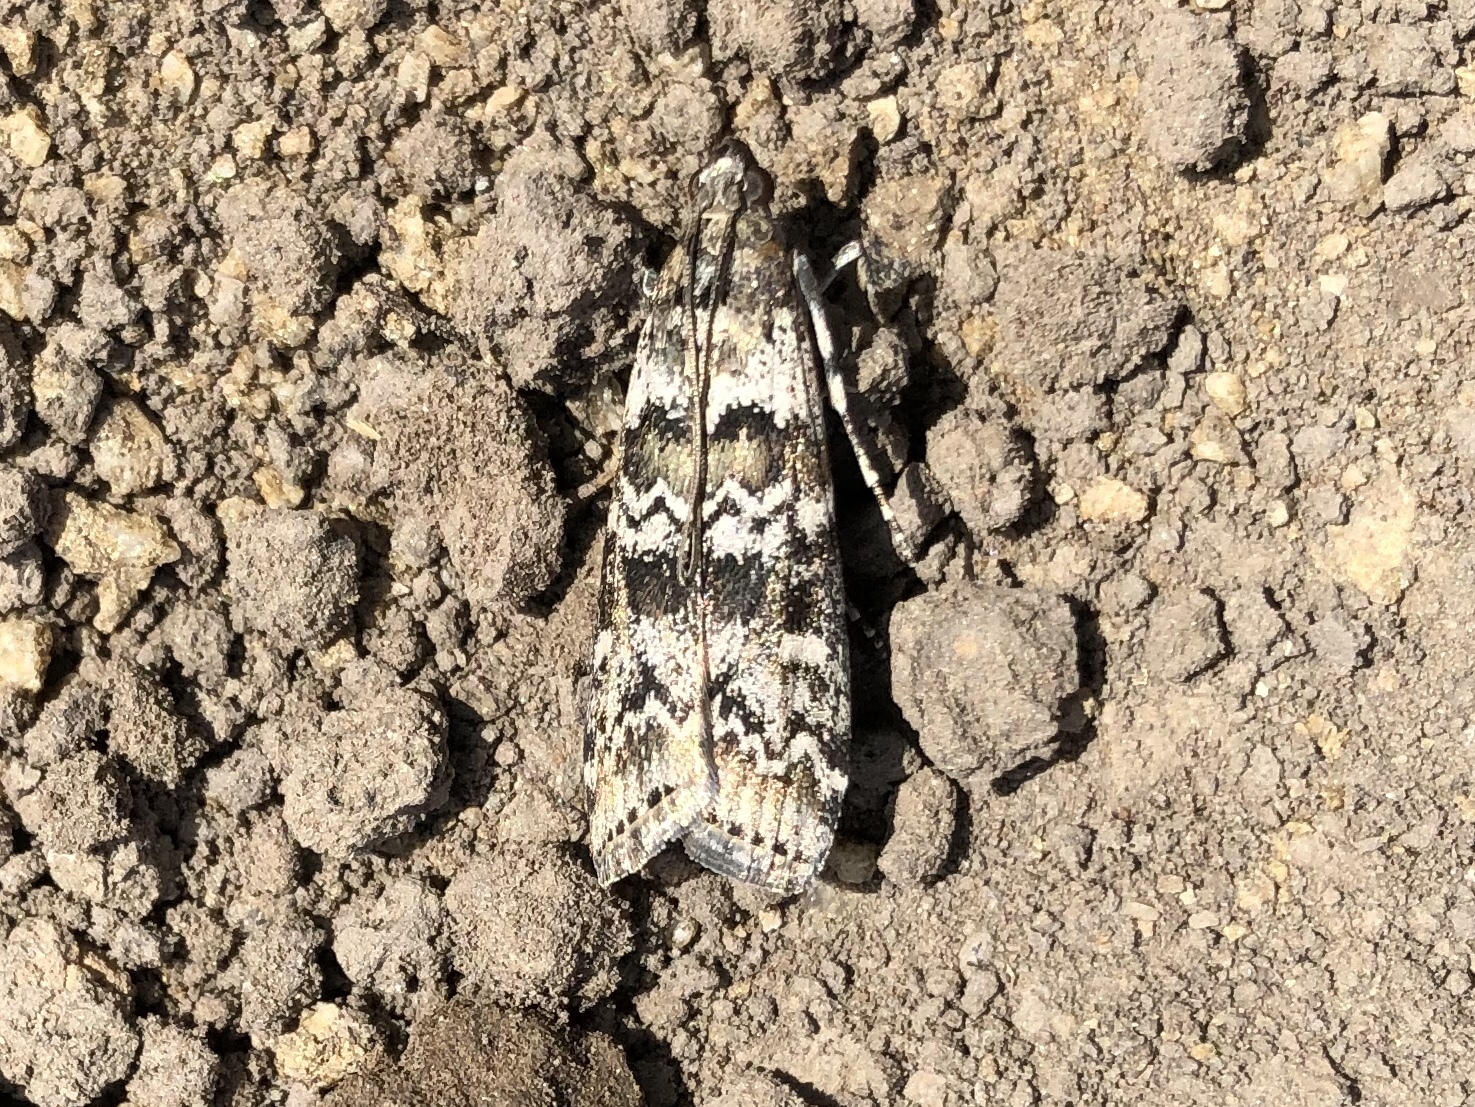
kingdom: Animalia
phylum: Arthropoda
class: Insecta
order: Lepidoptera
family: Pyralidae
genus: Dioryctria
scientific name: Dioryctria abietella
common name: Dark pine knot-horn
